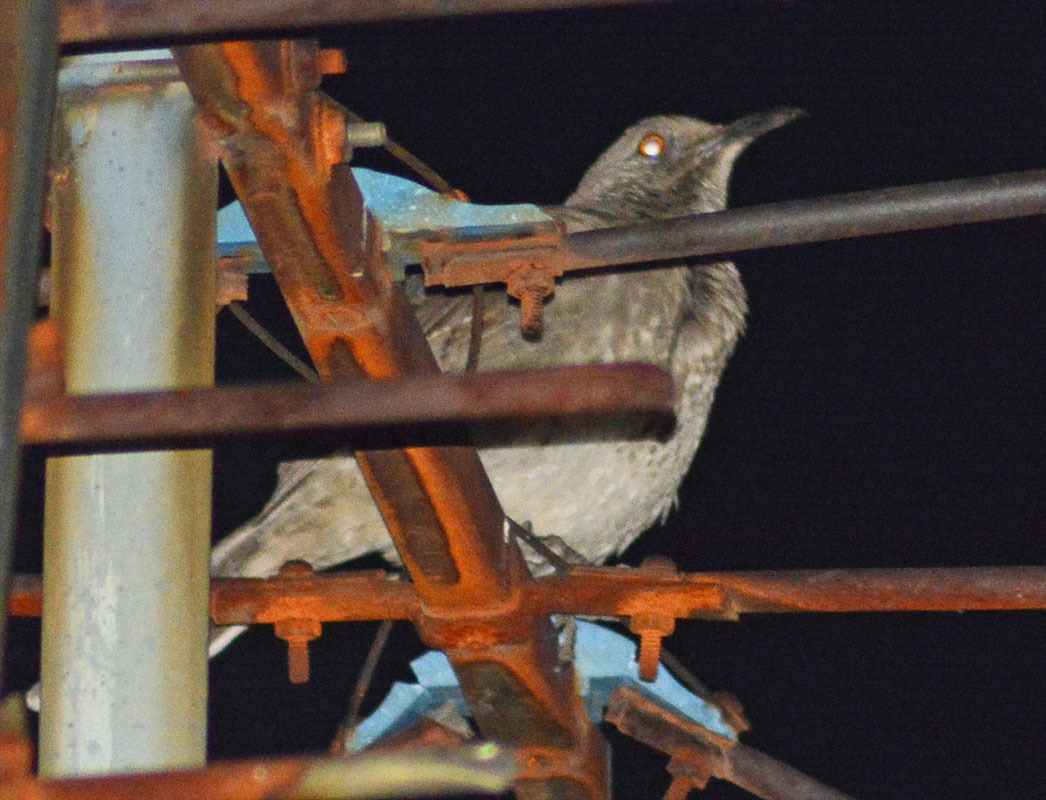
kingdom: Animalia
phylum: Chordata
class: Aves
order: Passeriformes
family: Mimidae
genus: Toxostoma
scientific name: Toxostoma curvirostre
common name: Curve-billed thrasher
